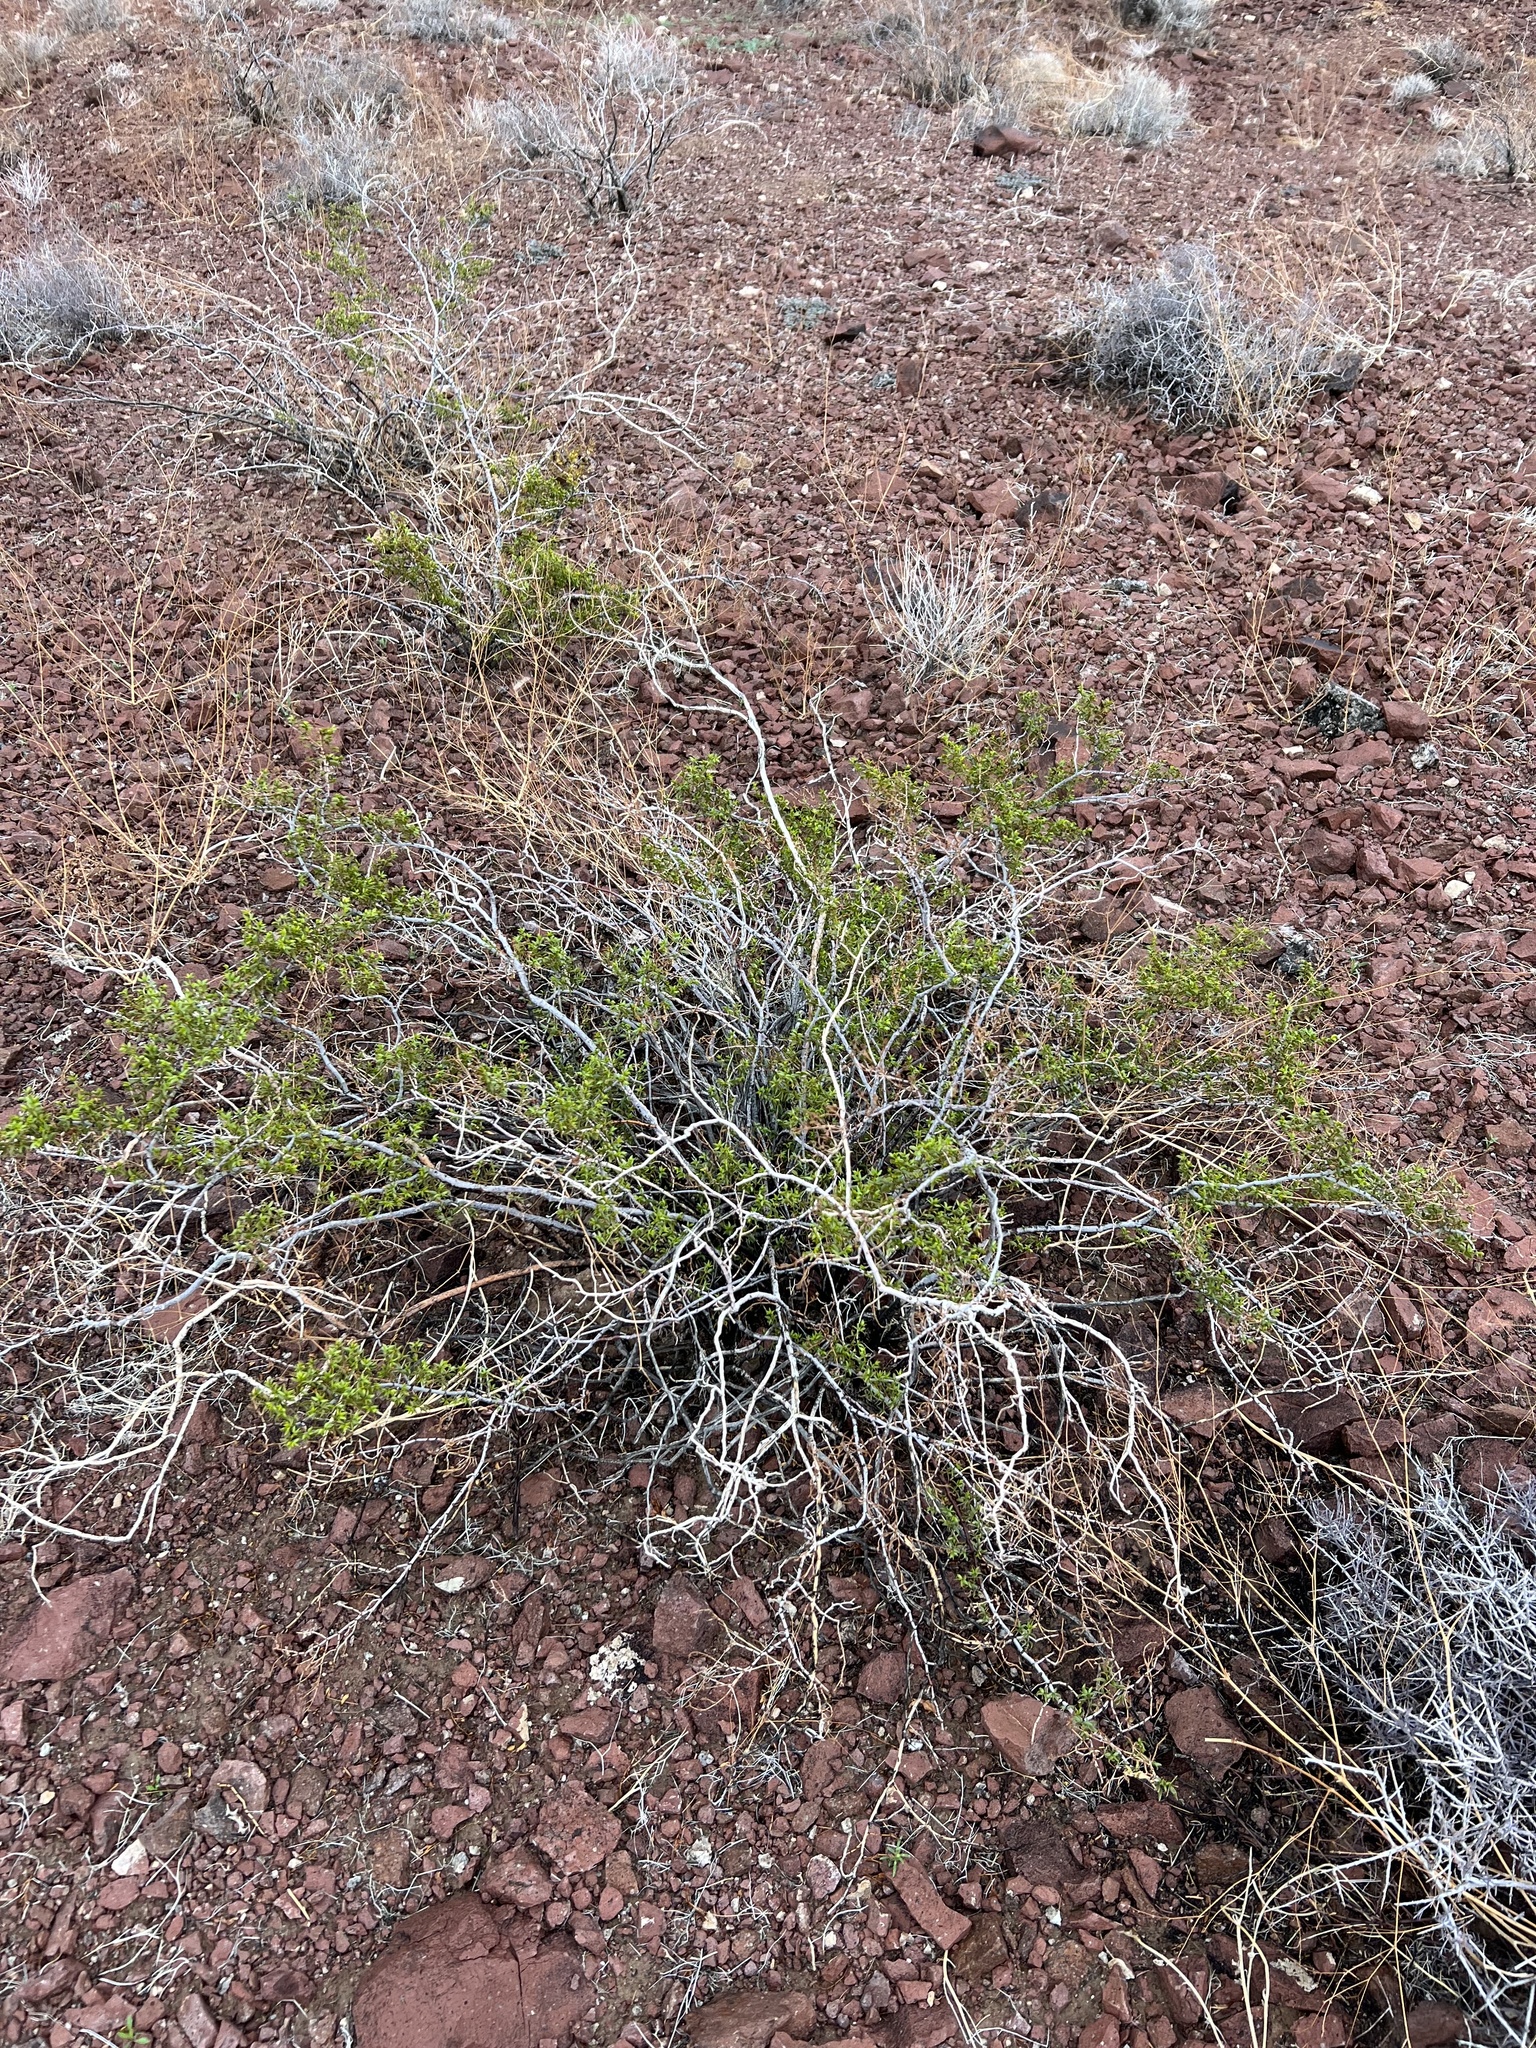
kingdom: Plantae
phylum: Tracheophyta
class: Magnoliopsida
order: Zygophyllales
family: Zygophyllaceae
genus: Larrea
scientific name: Larrea tridentata
